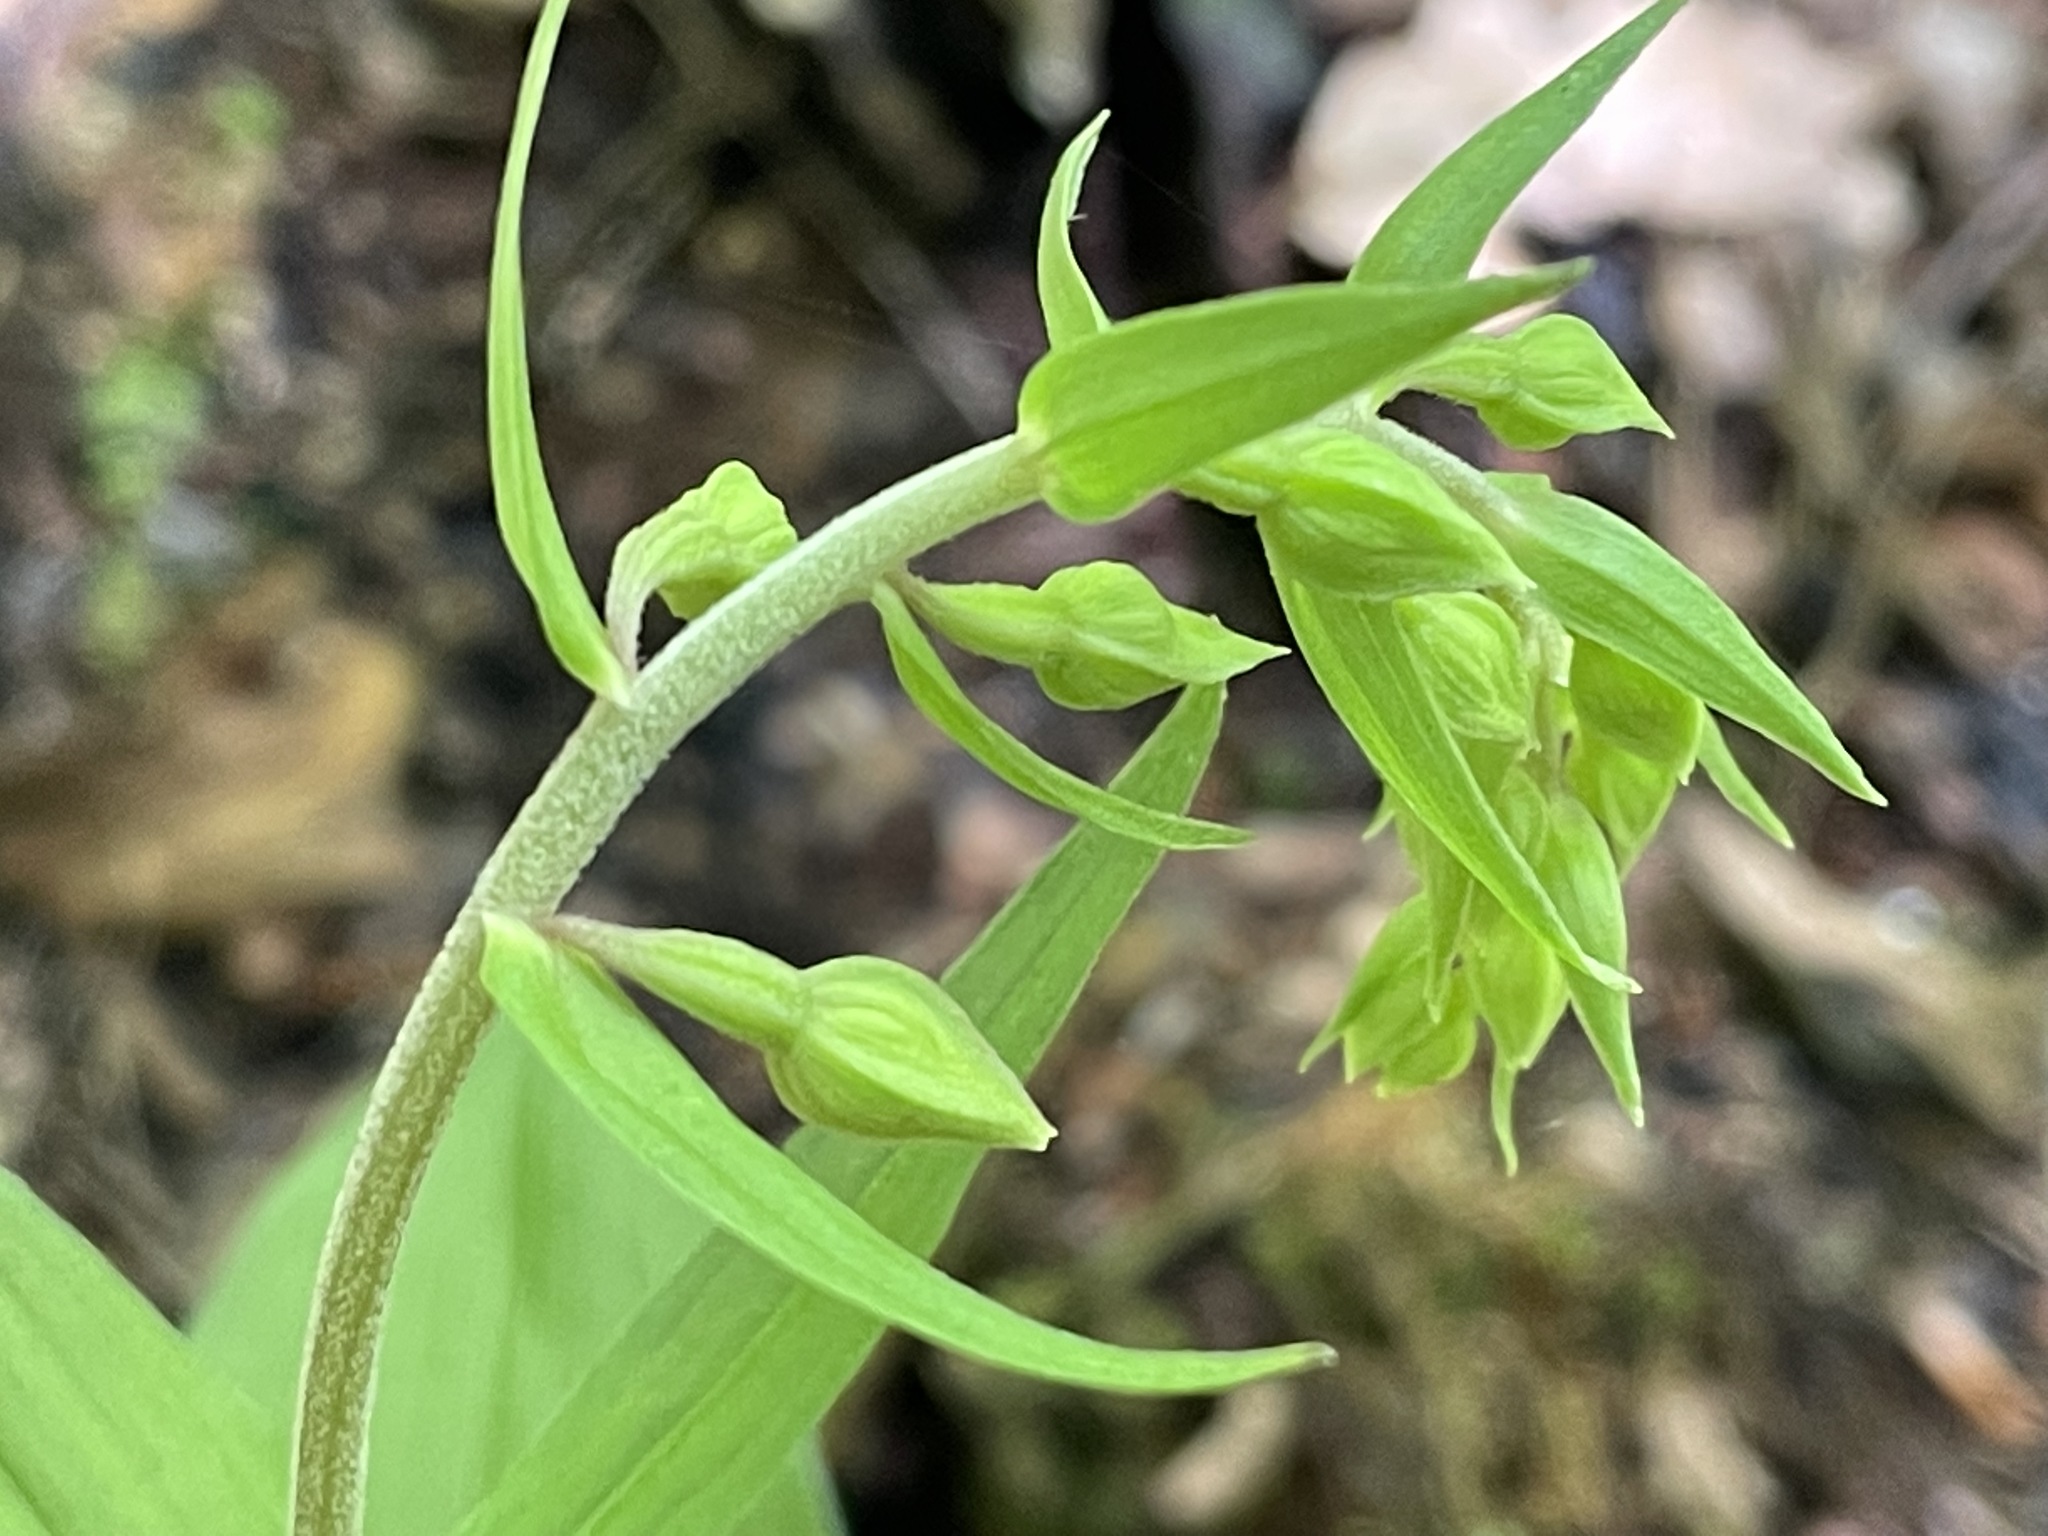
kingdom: Plantae
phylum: Tracheophyta
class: Liliopsida
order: Asparagales
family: Orchidaceae
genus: Epipactis
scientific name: Epipactis helleborine
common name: Broad-leaved helleborine
